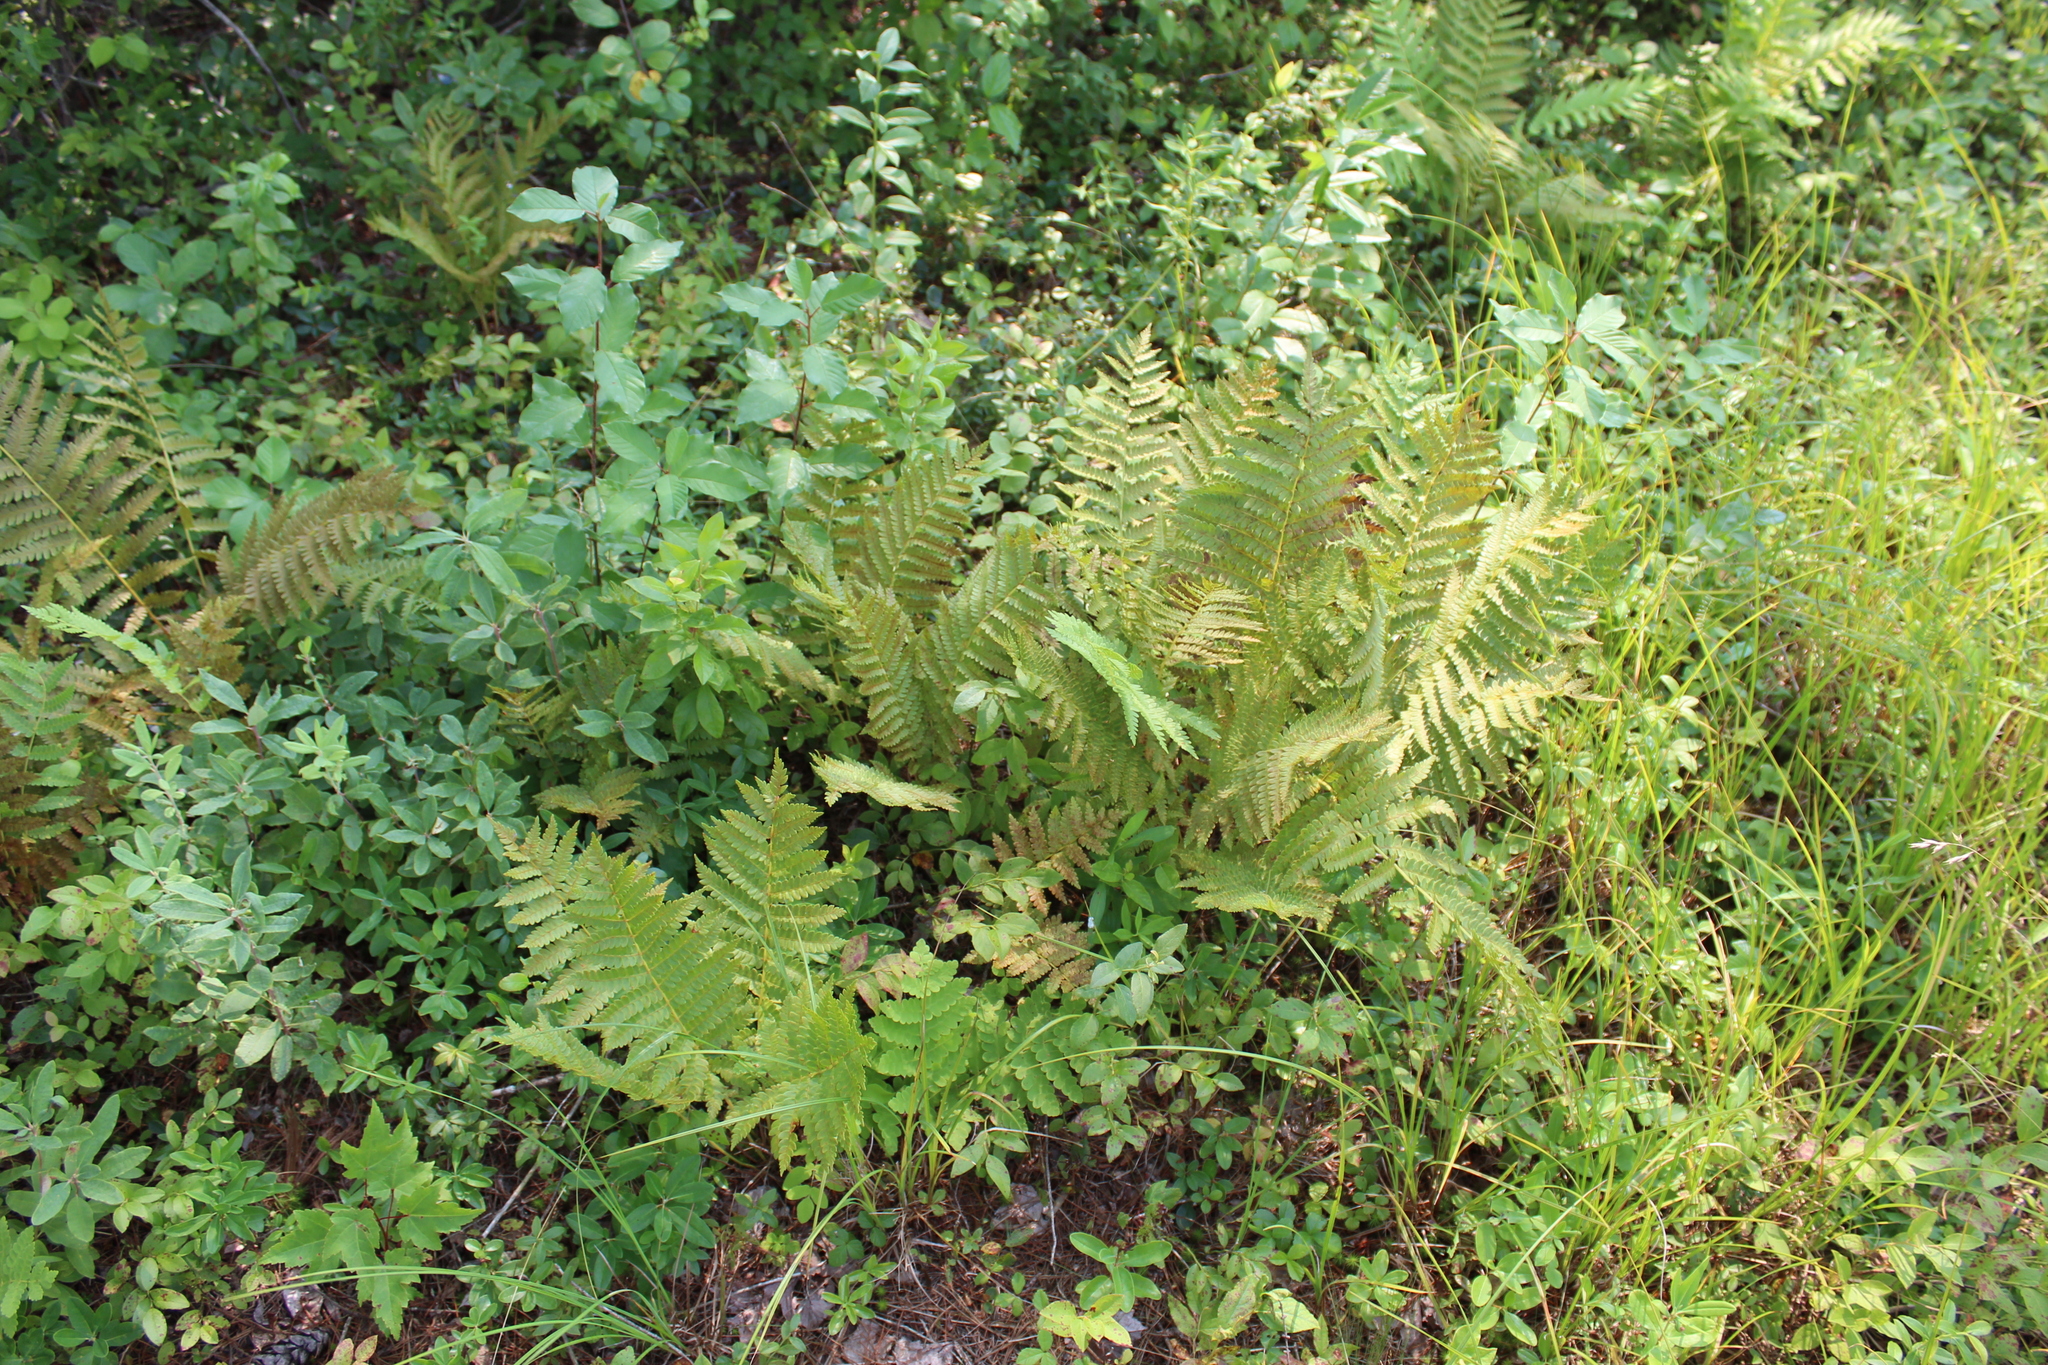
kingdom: Plantae
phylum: Tracheophyta
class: Polypodiopsida
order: Osmundales
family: Osmundaceae
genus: Osmundastrum
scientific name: Osmundastrum cinnamomeum
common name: Cinnamon fern
